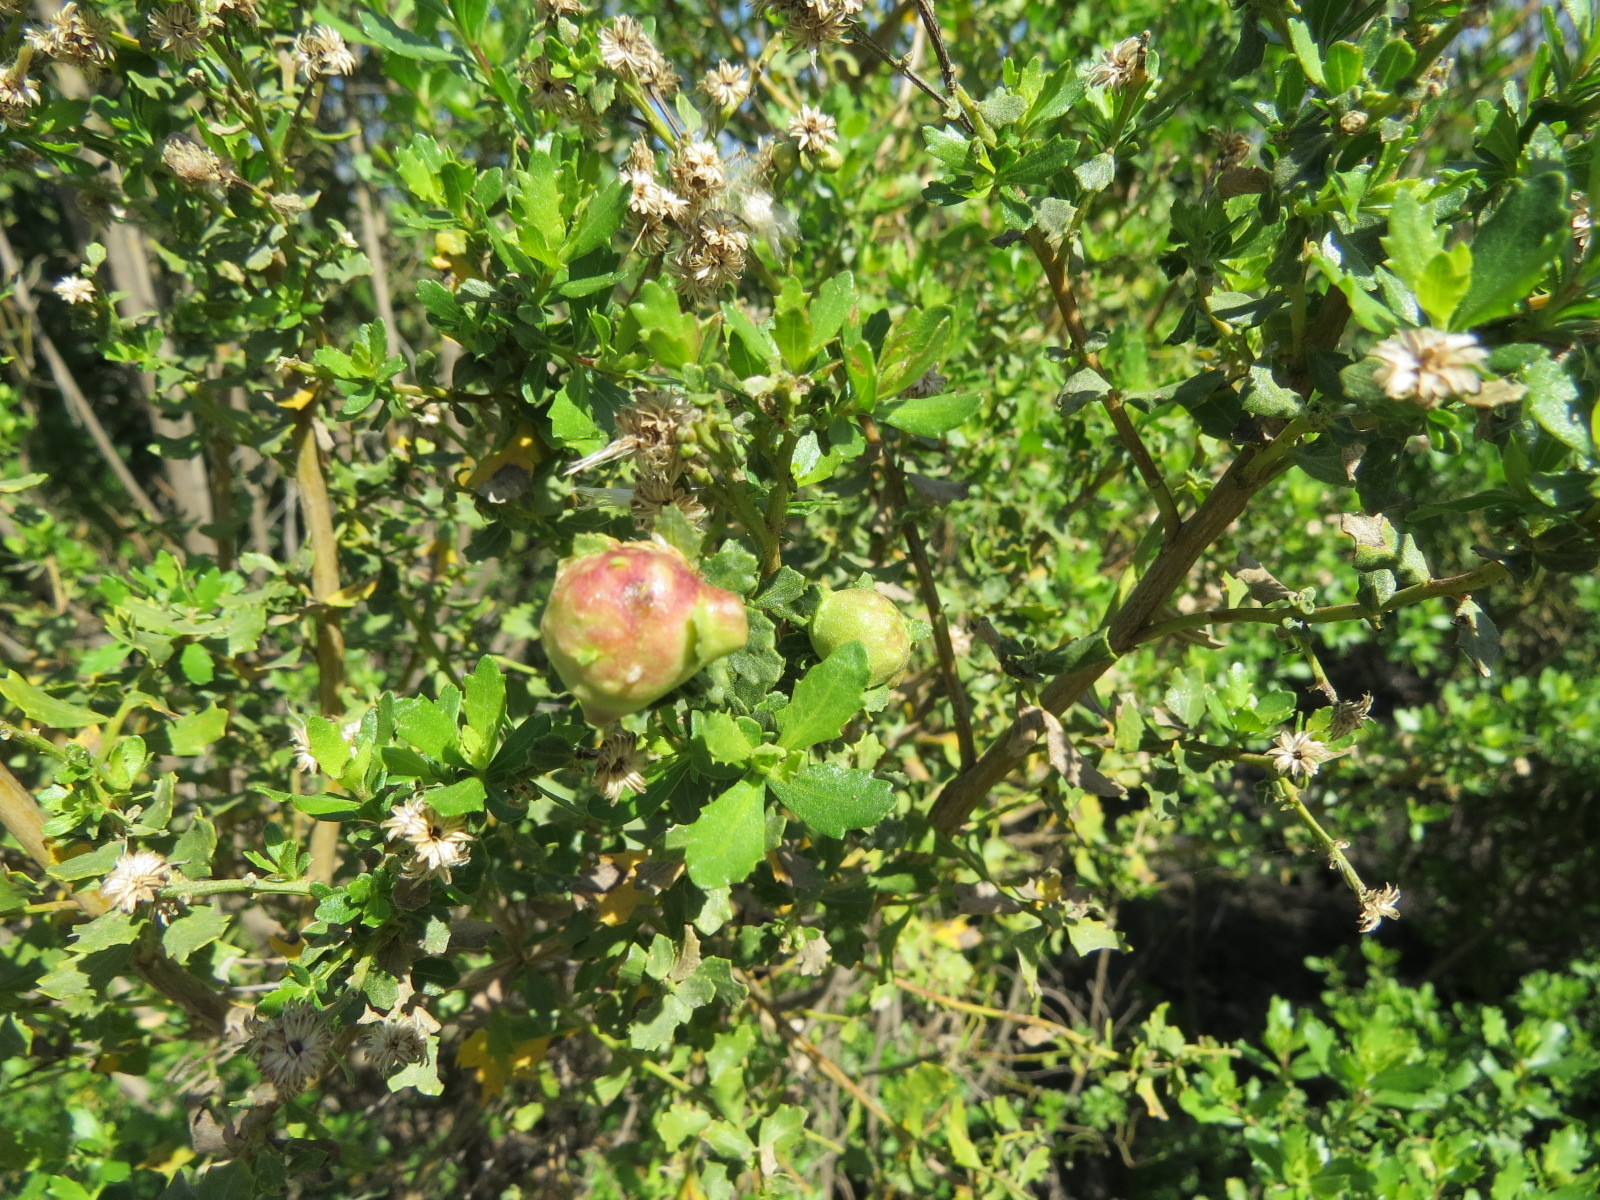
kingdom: Animalia
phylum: Arthropoda
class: Insecta
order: Diptera
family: Cecidomyiidae
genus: Rhopalomyia
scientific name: Rhopalomyia californica
